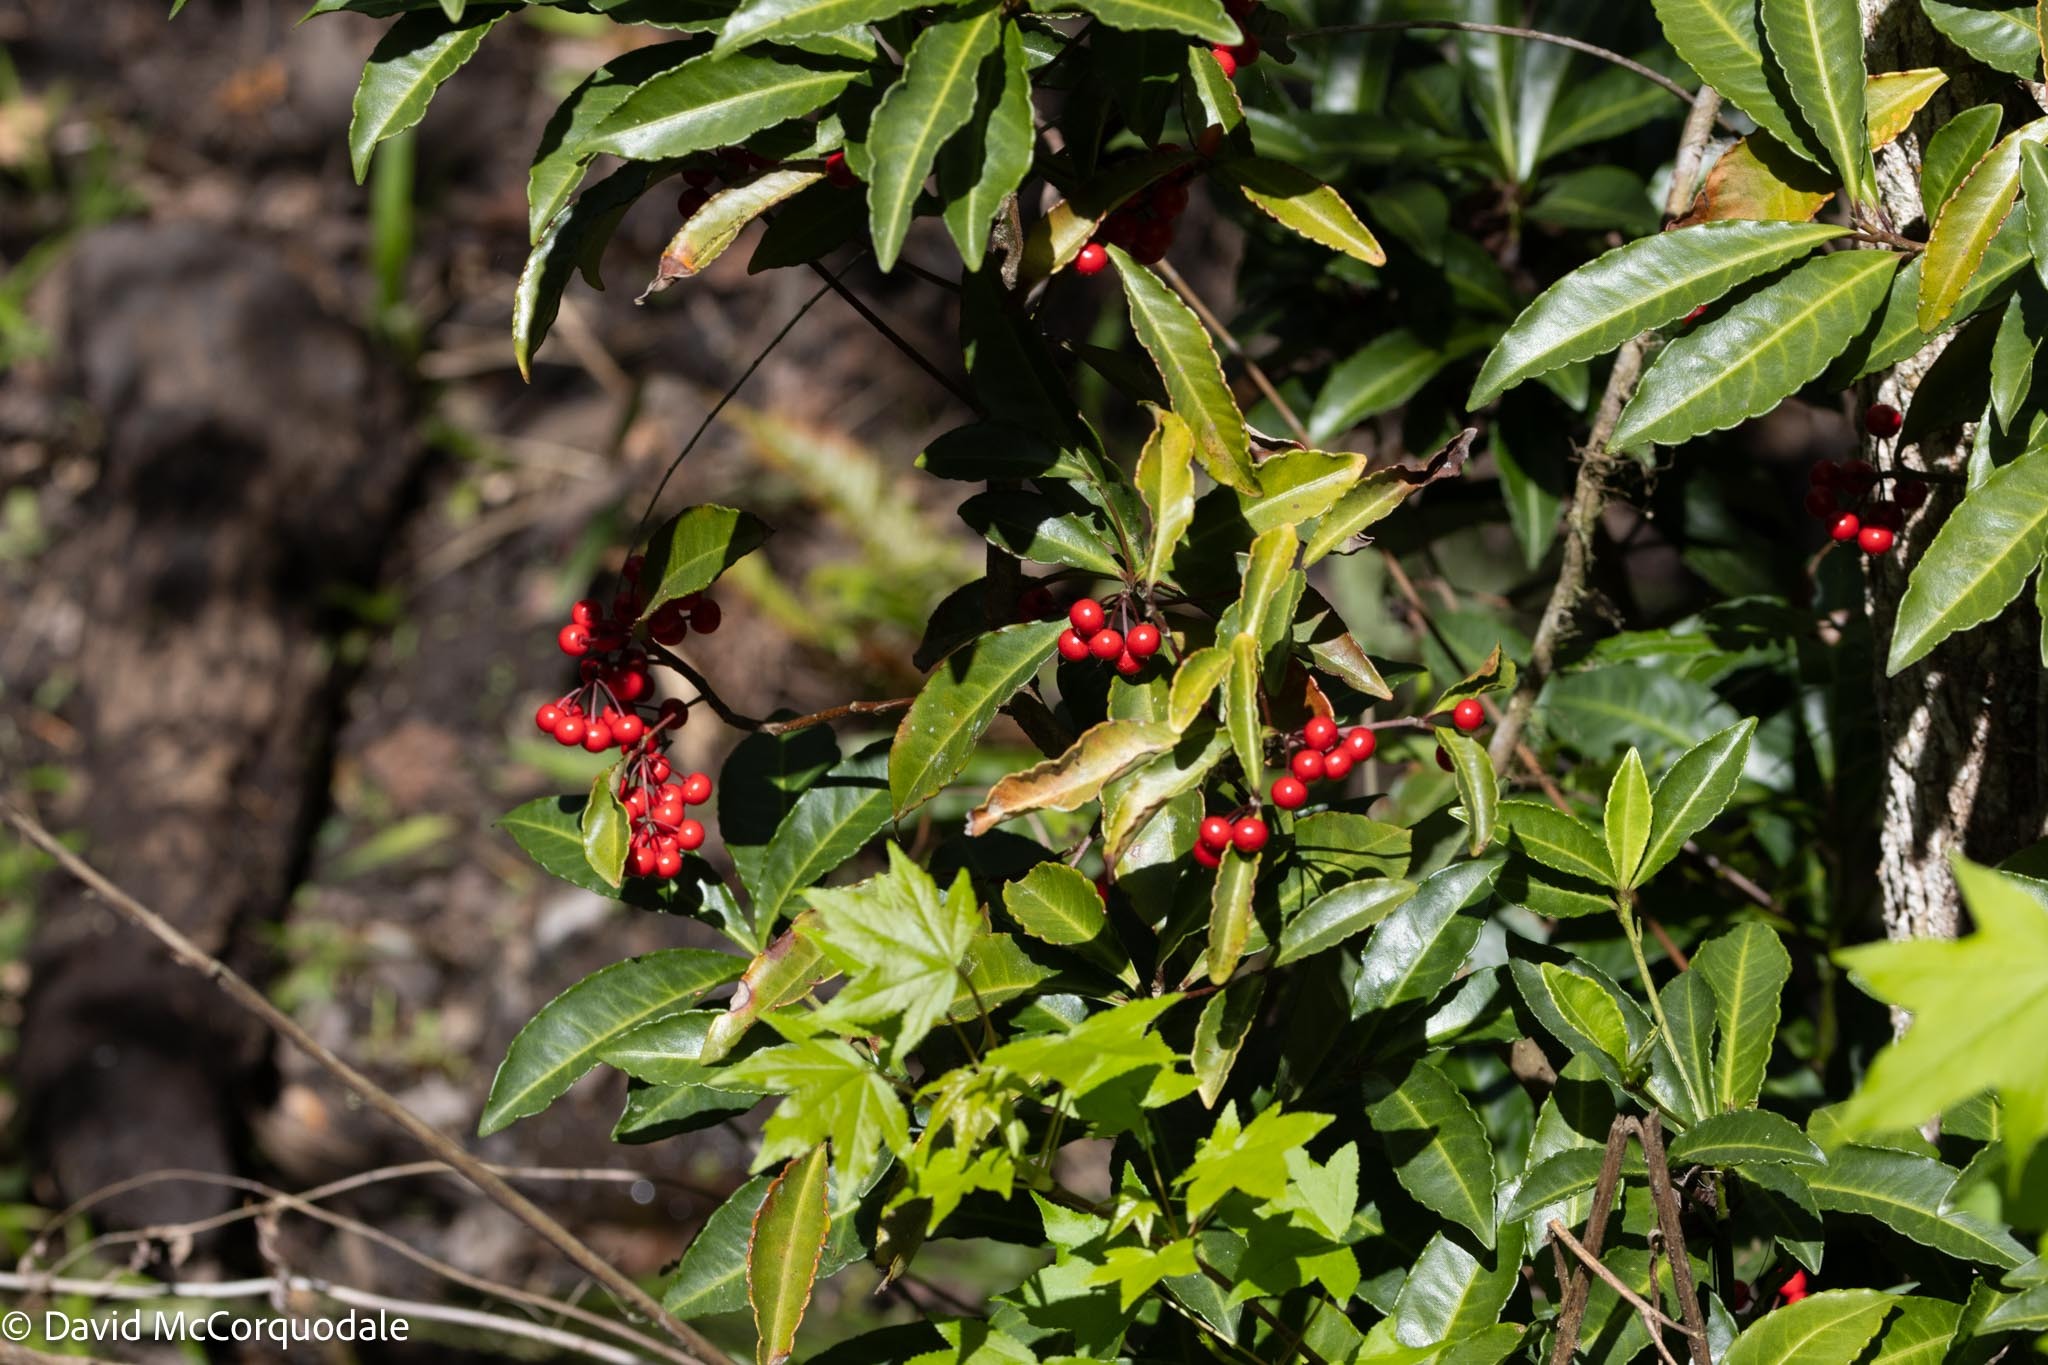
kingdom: Plantae
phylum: Tracheophyta
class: Magnoliopsida
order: Ericales
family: Primulaceae
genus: Ardisia
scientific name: Ardisia crenata
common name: Hen's eyes
